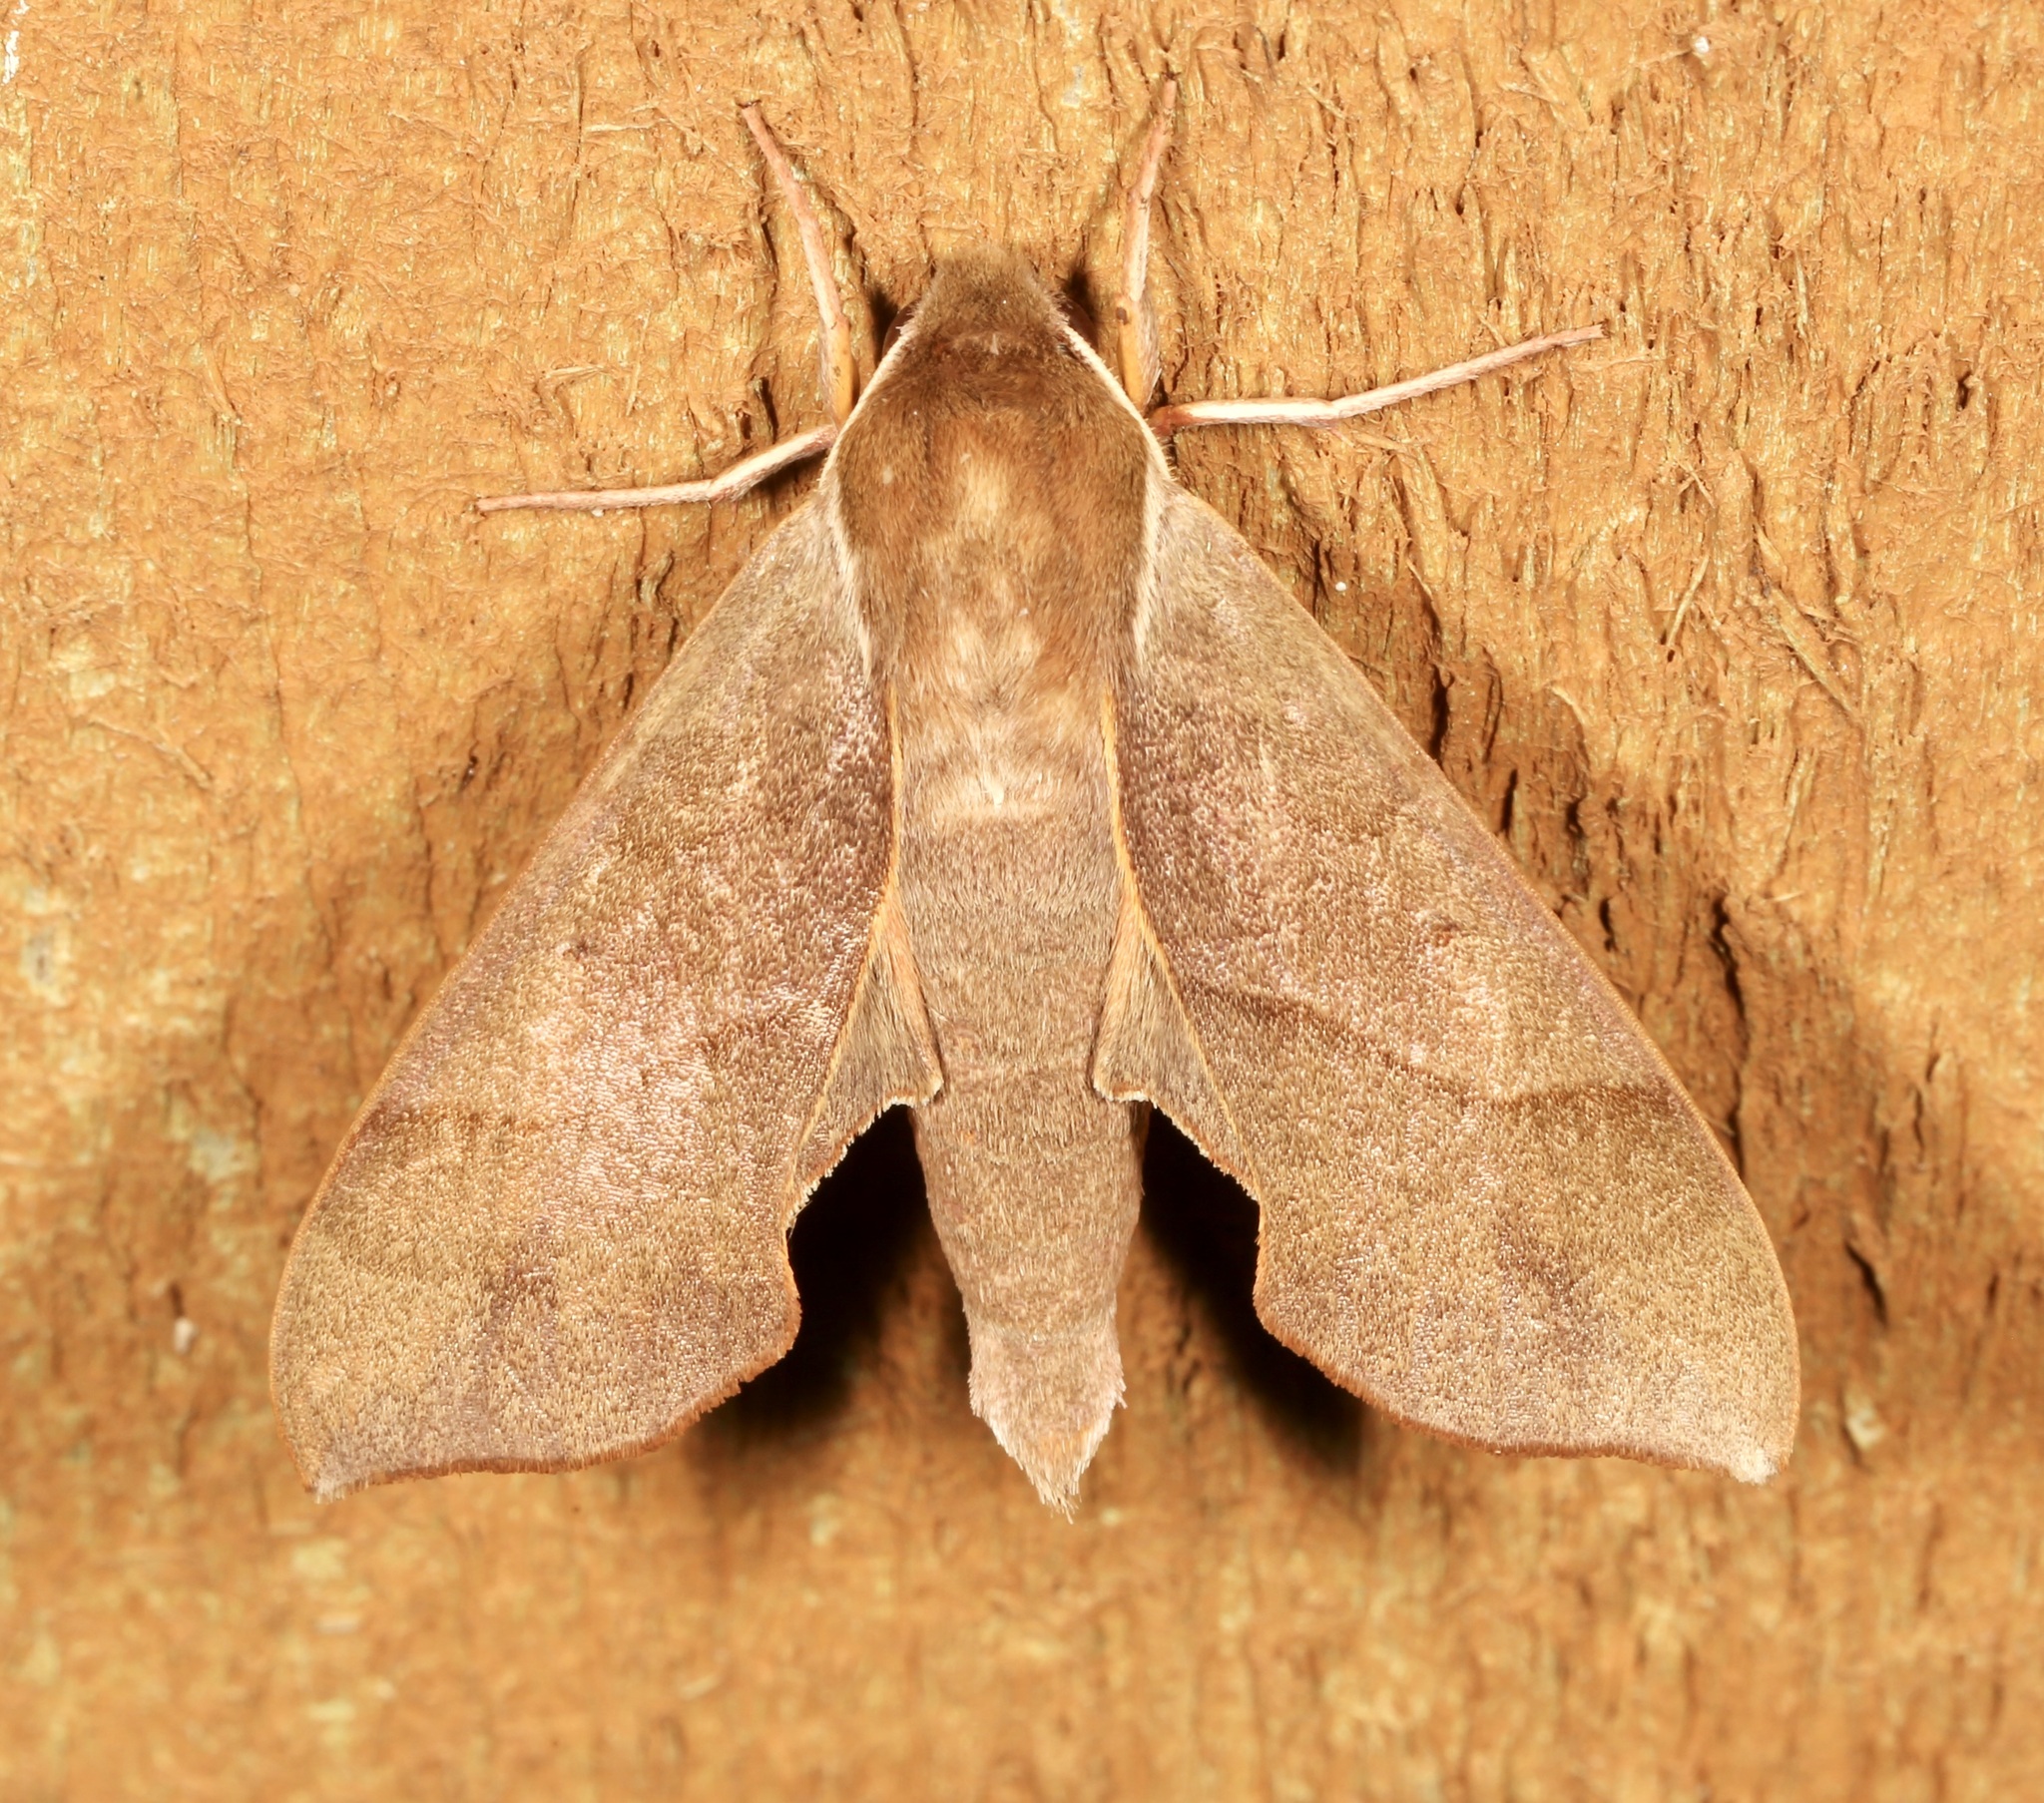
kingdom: Animalia
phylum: Arthropoda
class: Insecta
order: Lepidoptera
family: Sphingidae
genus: Darapsa
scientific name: Darapsa myron
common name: Hog sphinx
